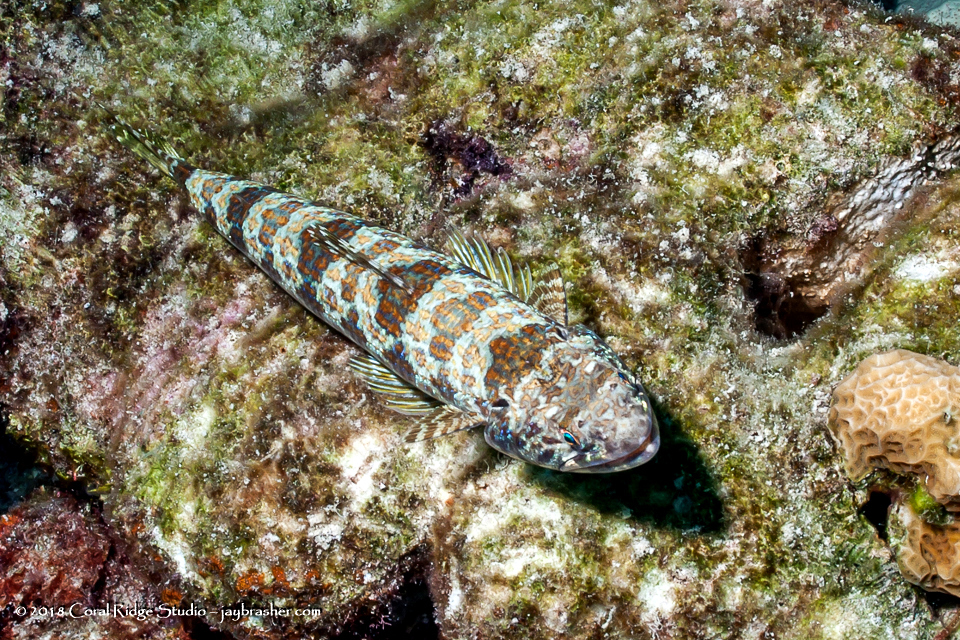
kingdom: Animalia
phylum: Chordata
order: Aulopiformes
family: Synodontidae
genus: Synodus
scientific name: Synodus intermedius
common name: Sand diver
